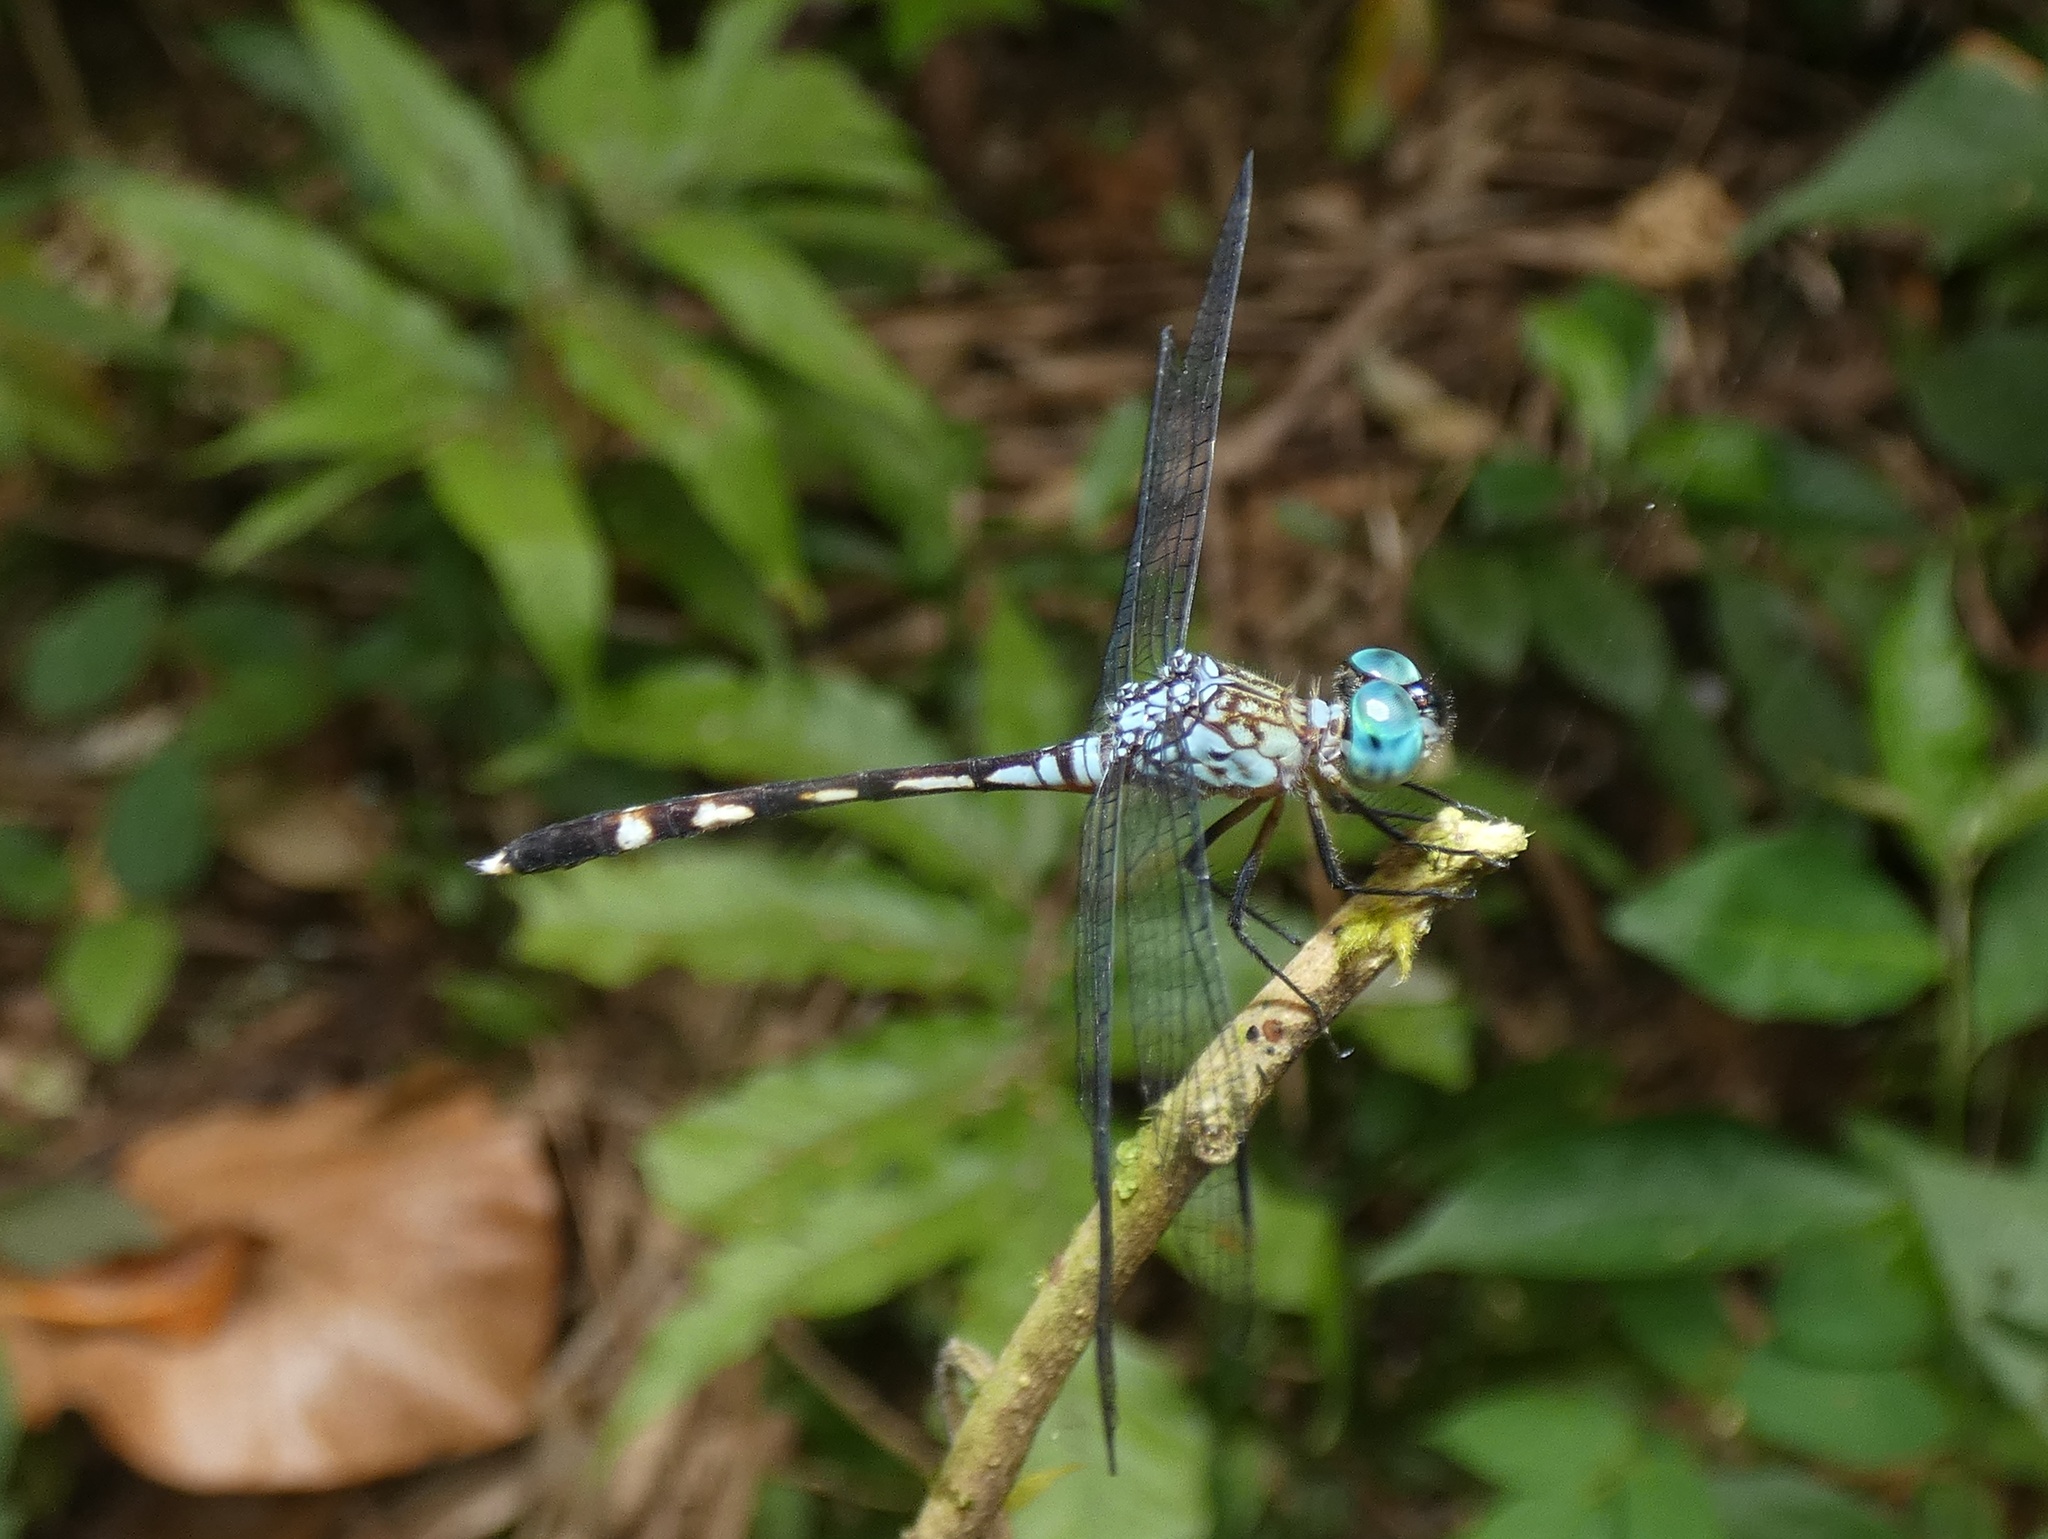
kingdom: Animalia
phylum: Arthropoda
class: Insecta
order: Odonata
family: Libellulidae
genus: Anatya
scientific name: Anatya guttata
